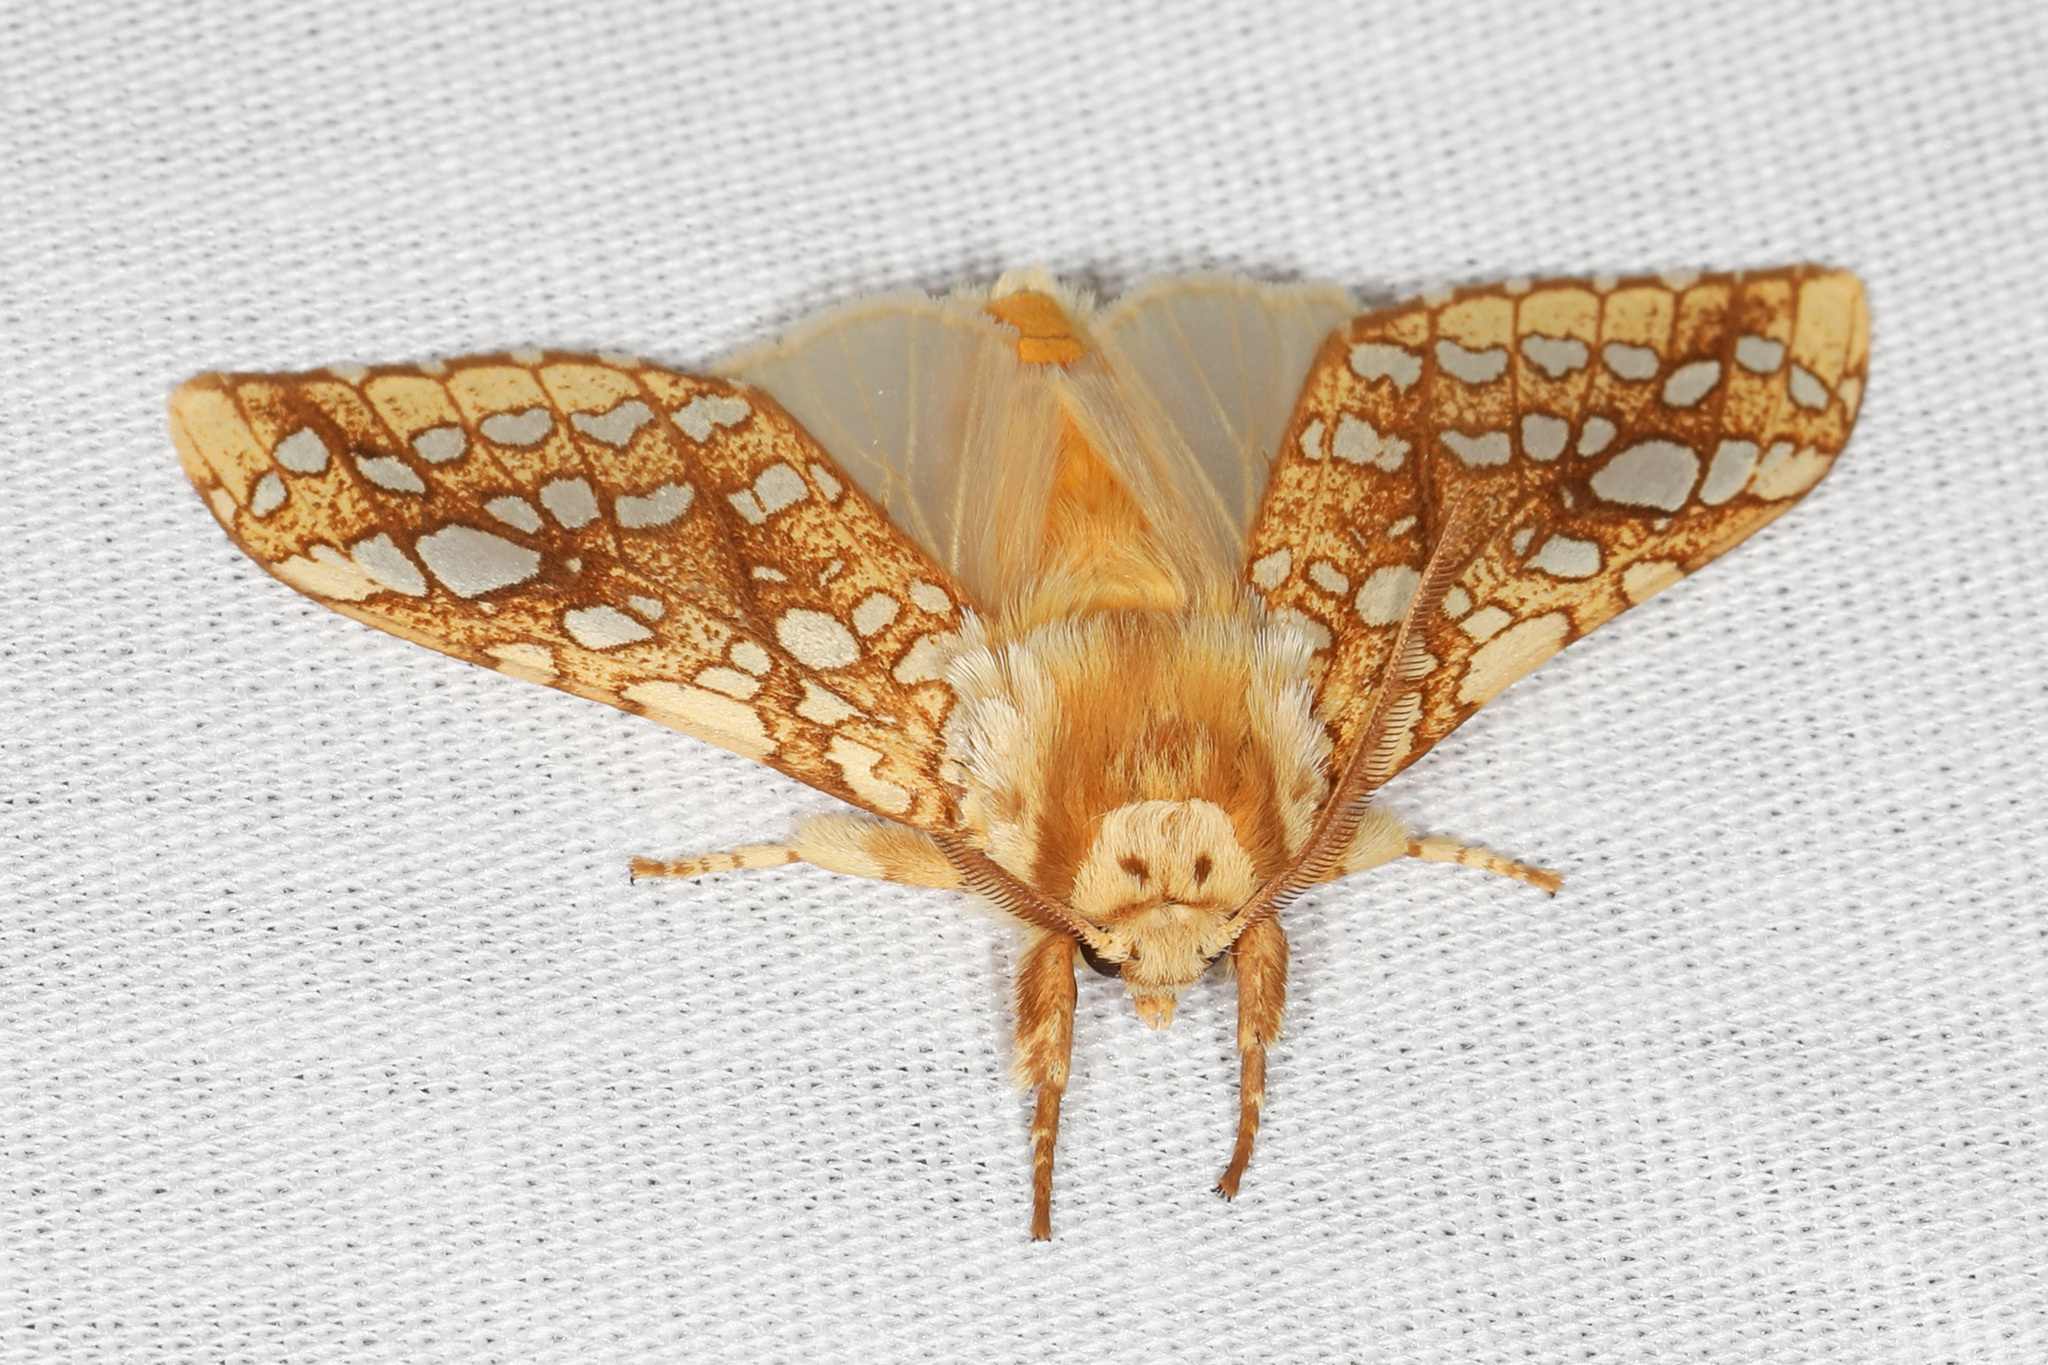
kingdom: Animalia
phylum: Arthropoda
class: Insecta
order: Lepidoptera
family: Erebidae
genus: Lophocampa
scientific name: Lophocampa caryae
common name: Hickory tussock moth
